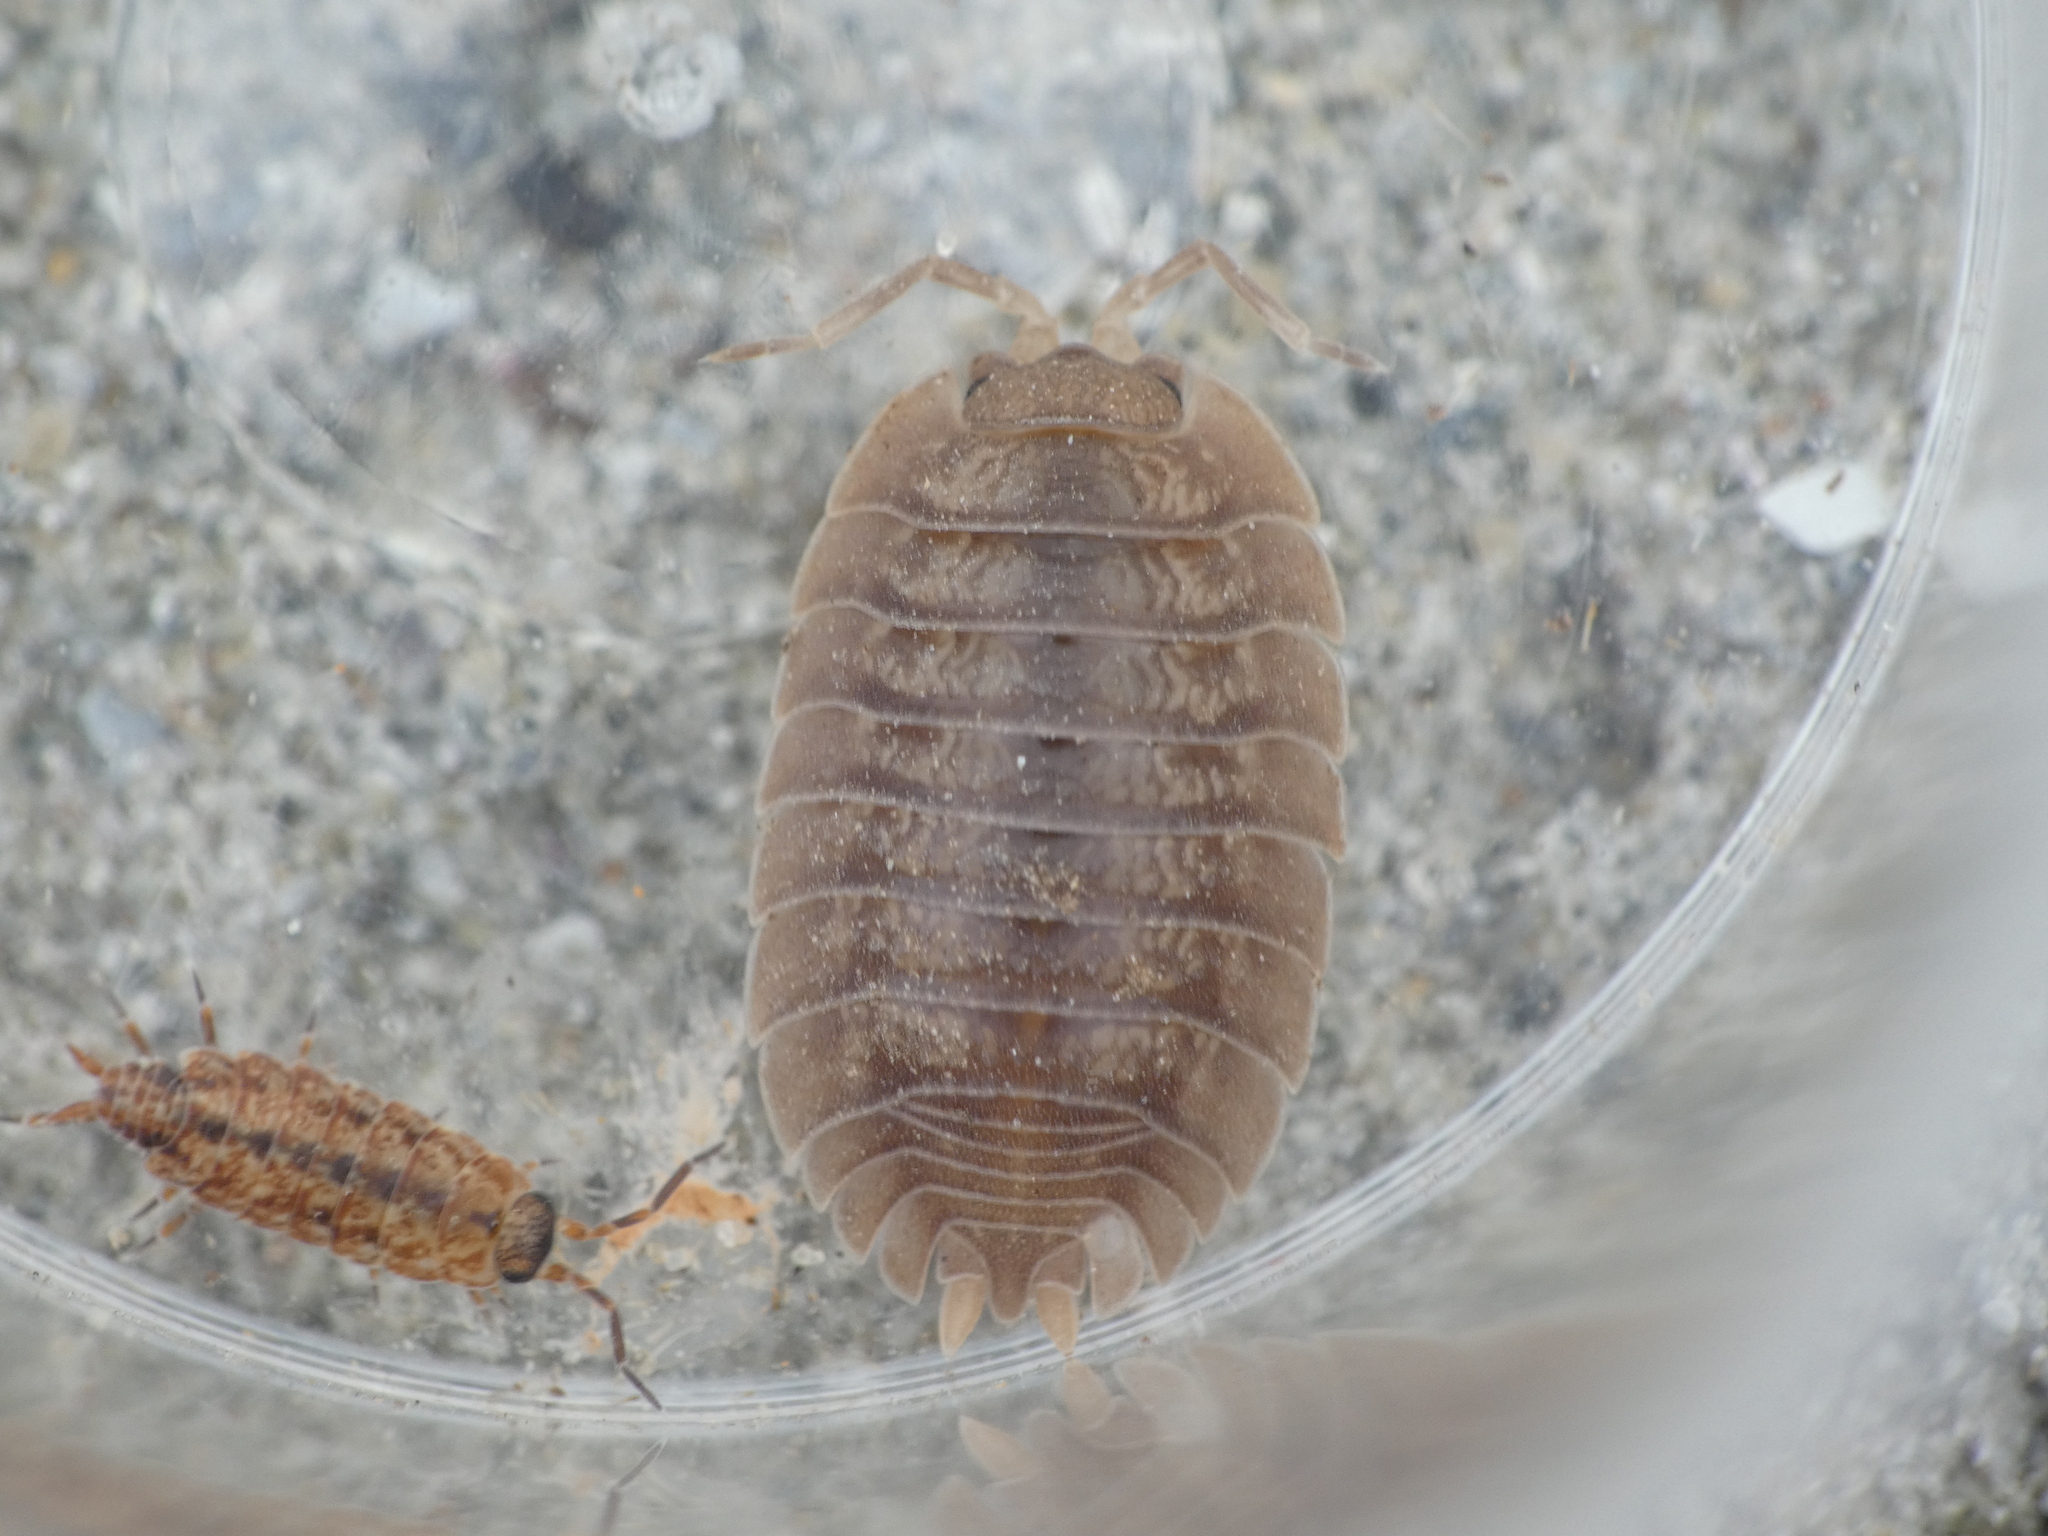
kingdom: Animalia
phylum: Arthropoda
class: Malacostraca
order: Isopoda
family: Porcellionidae
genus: Porcellio
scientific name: Porcellio dilatatus
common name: Isopod
